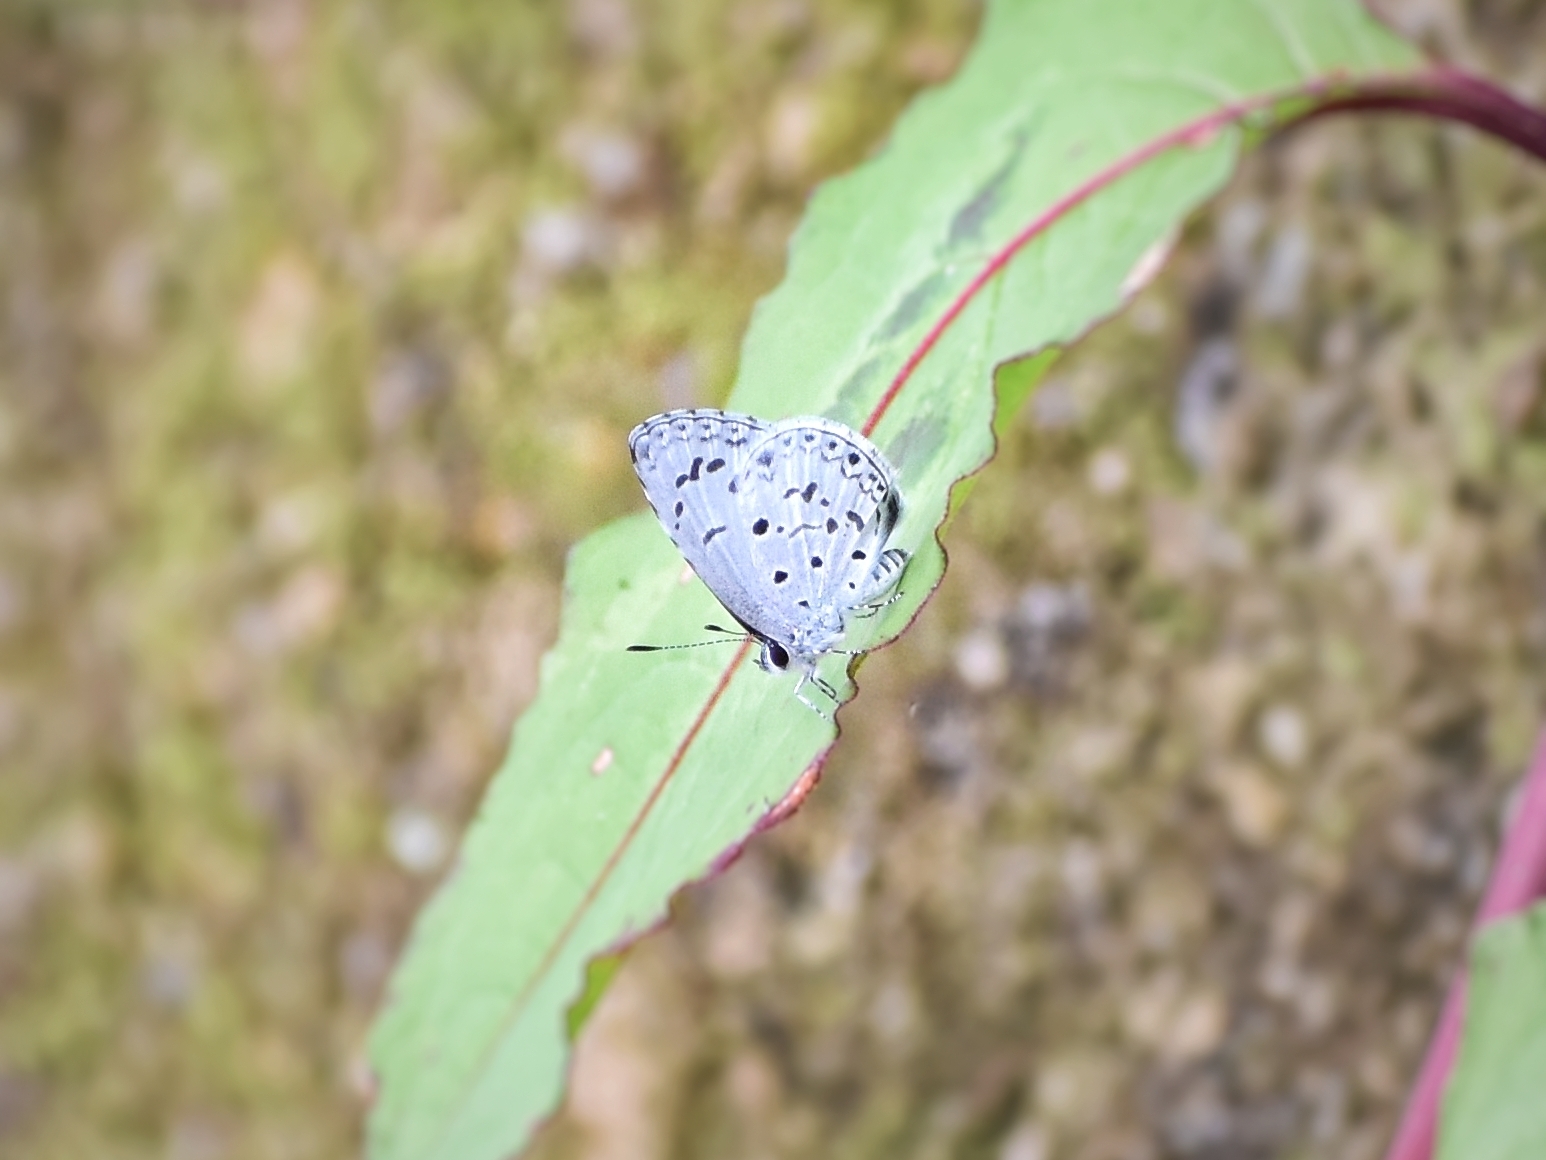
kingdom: Animalia
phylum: Arthropoda
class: Insecta
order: Lepidoptera
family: Lycaenidae
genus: Acytolepis
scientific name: Acytolepis puspa
